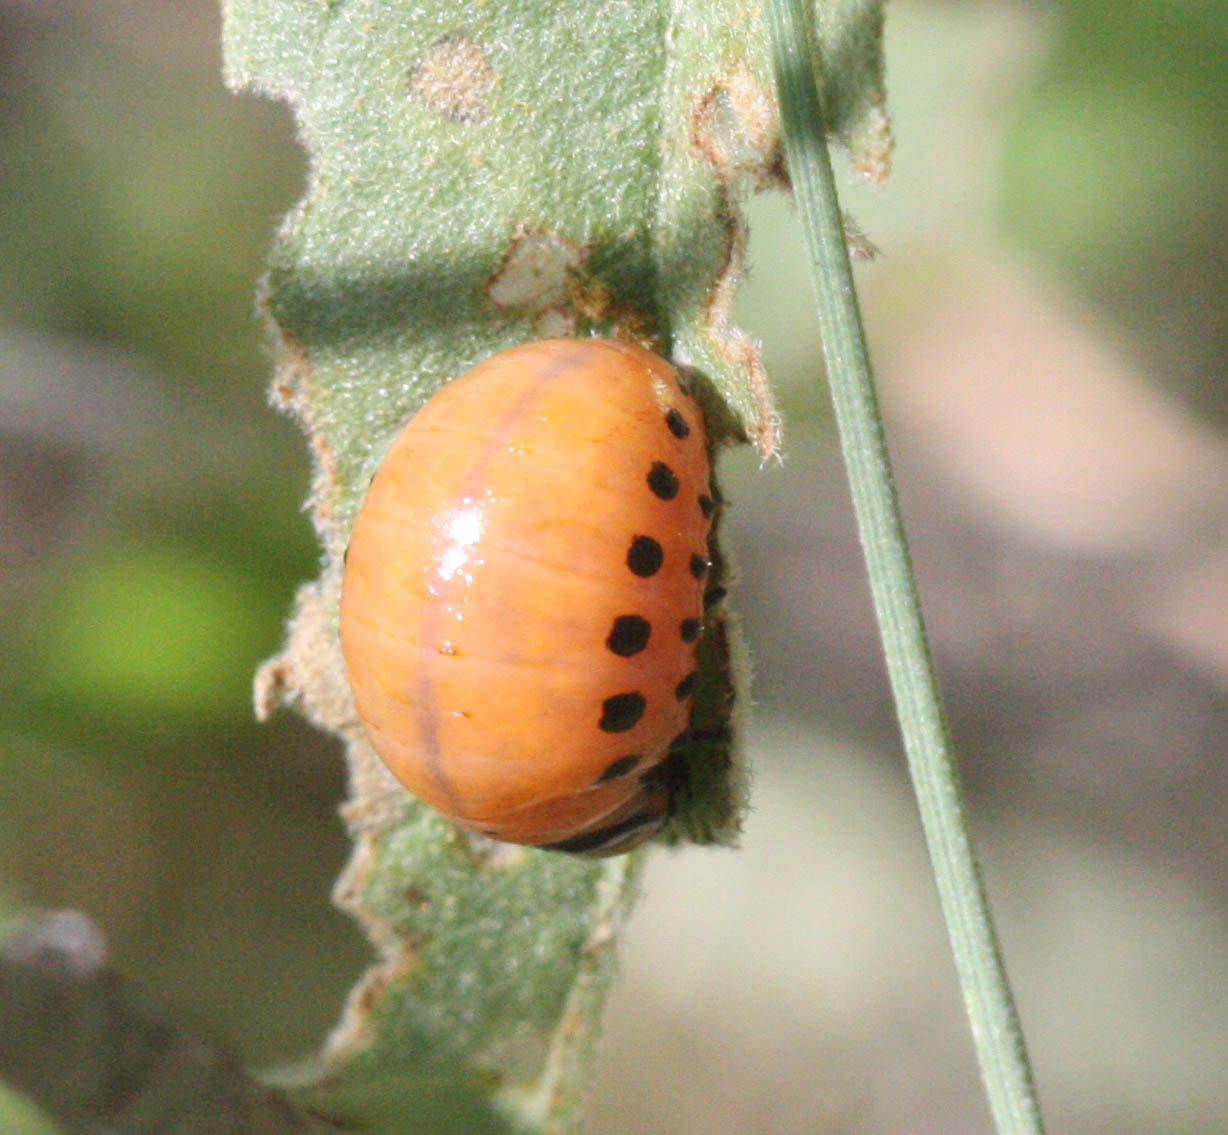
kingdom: Animalia
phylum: Arthropoda
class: Insecta
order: Coleoptera
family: Chrysomelidae
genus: Leptinotarsa
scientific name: Leptinotarsa decemlineata
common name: Colorado potato beetle
